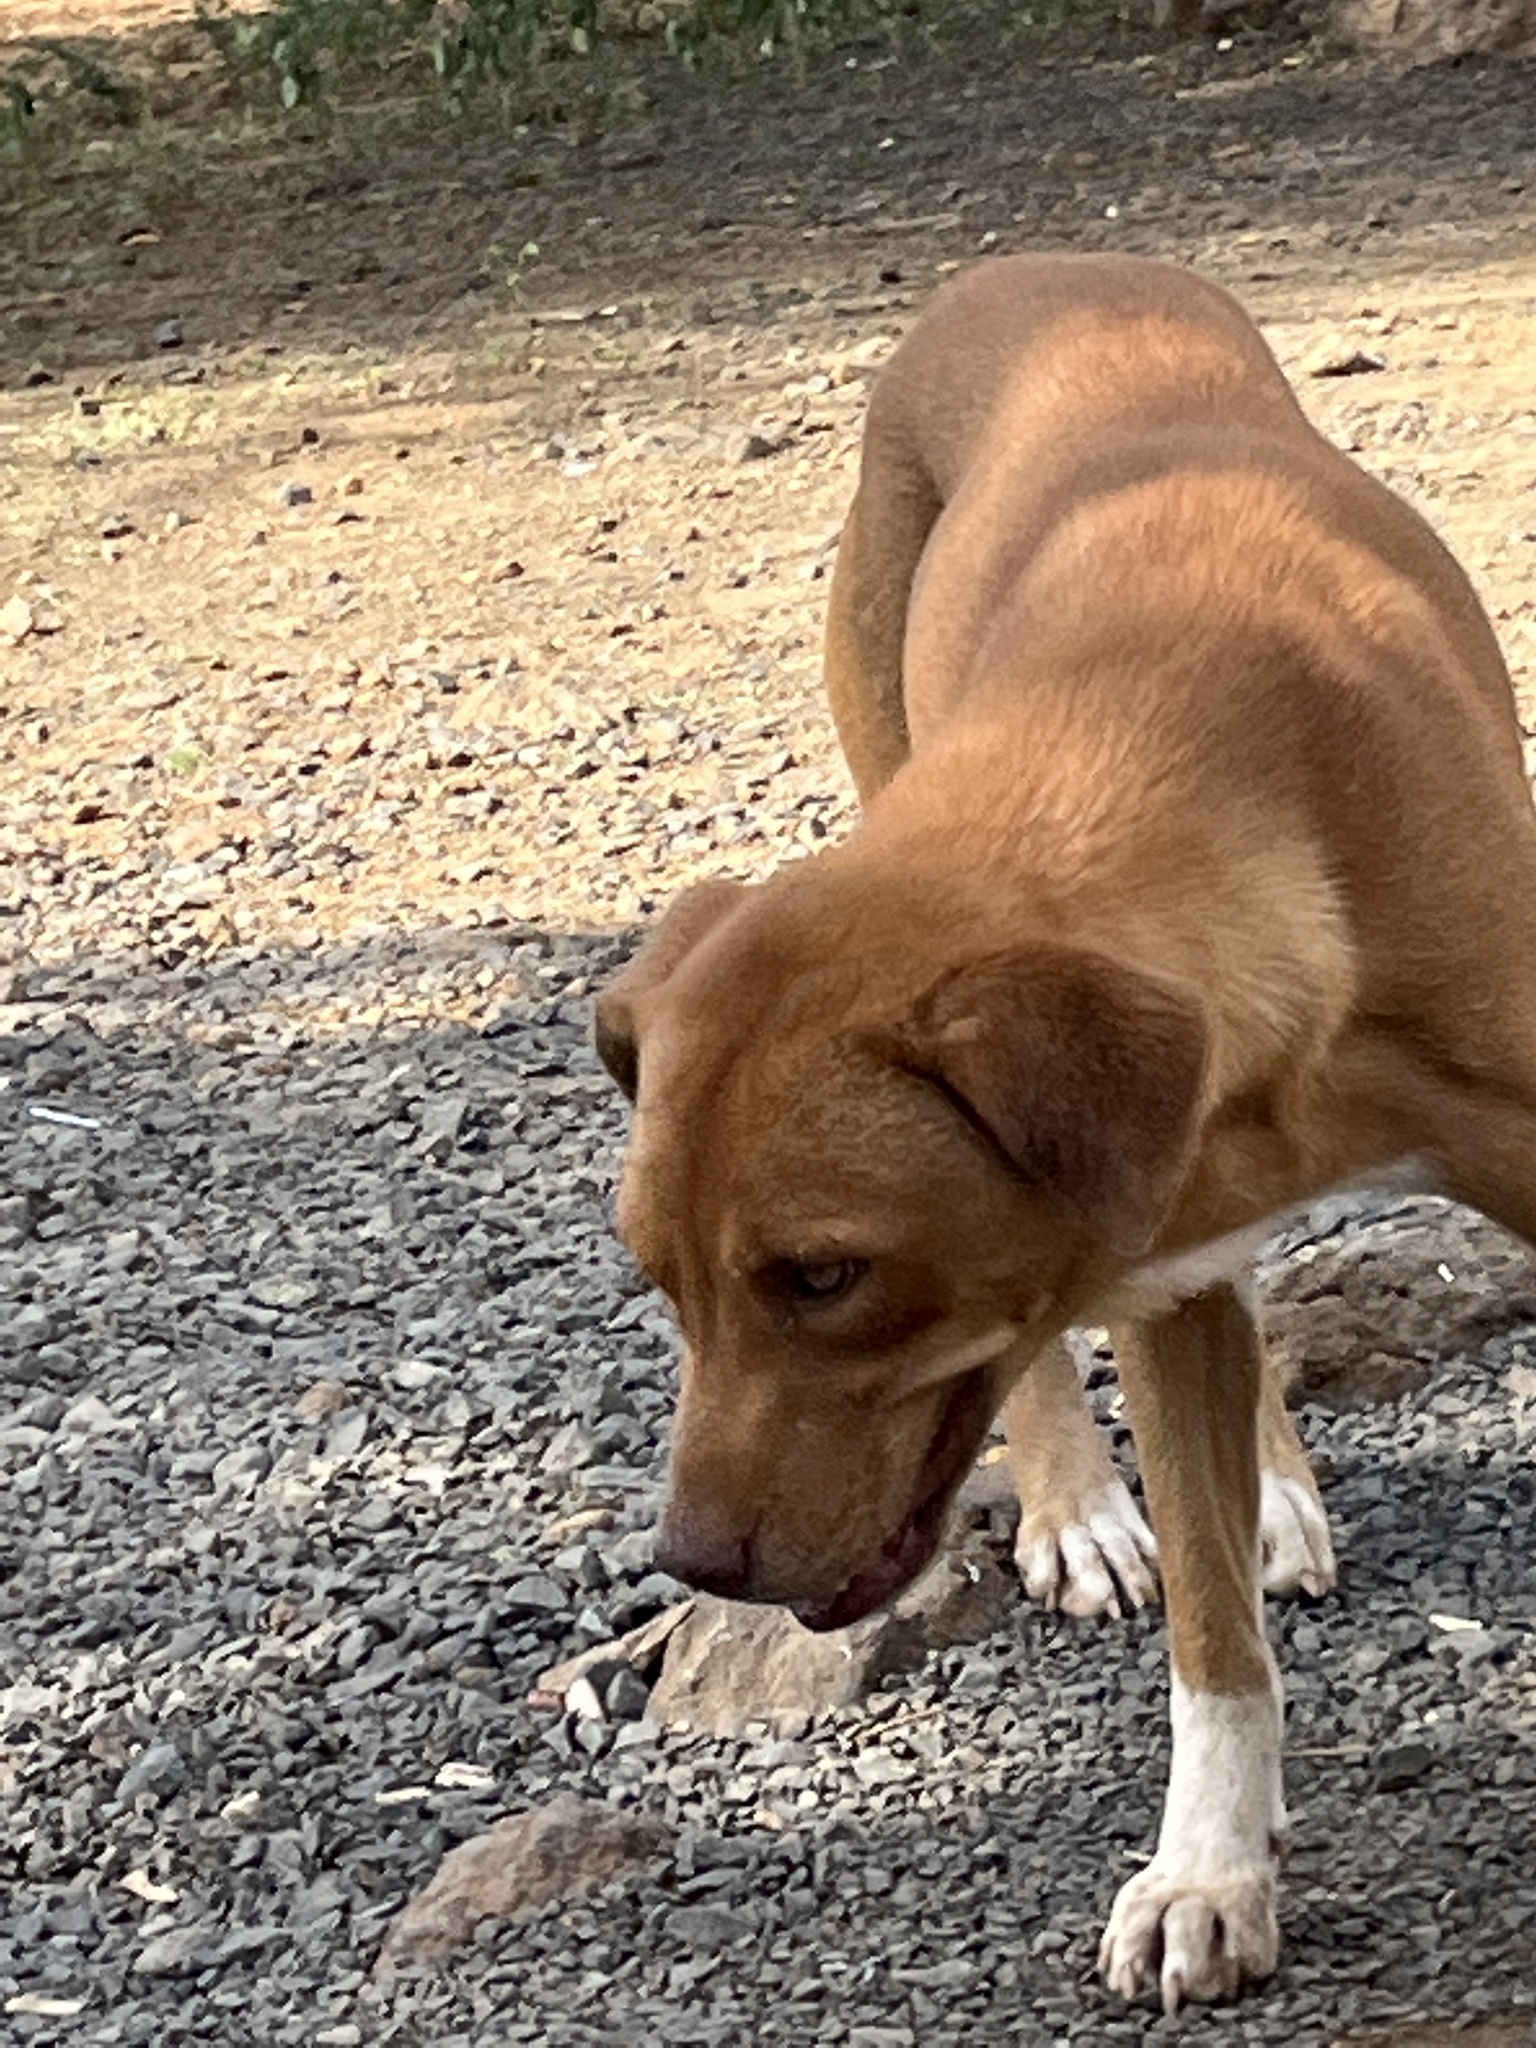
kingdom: Animalia
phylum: Chordata
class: Mammalia
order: Carnivora
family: Canidae
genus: Canis
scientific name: Canis lupus
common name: Gray wolf
